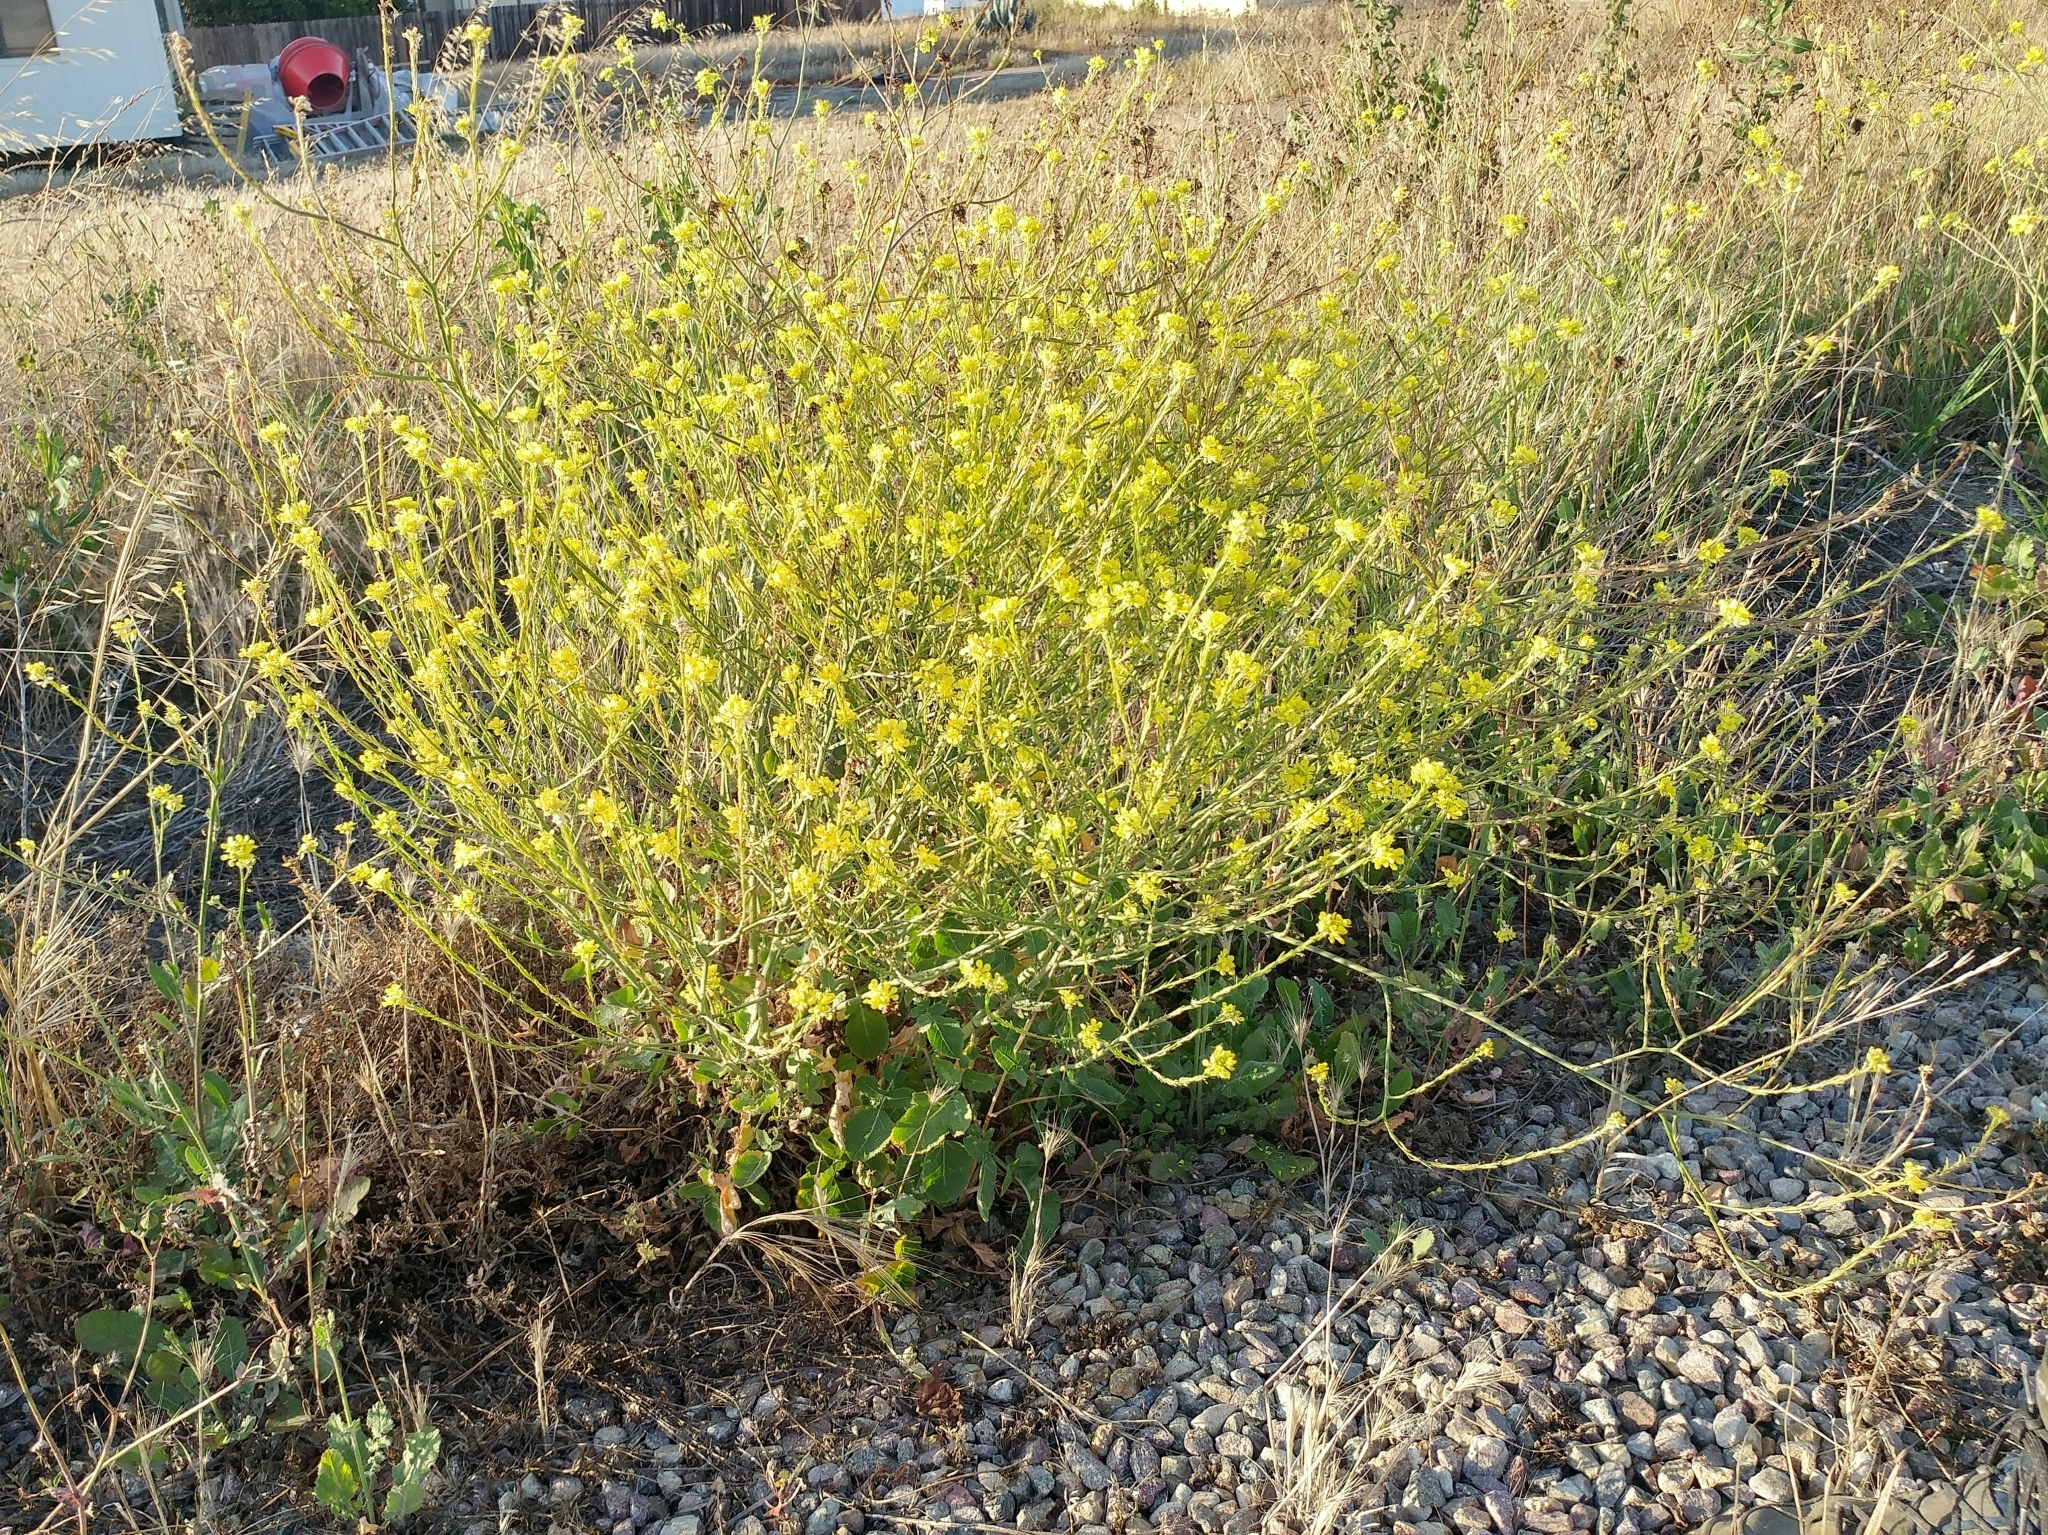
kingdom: Plantae
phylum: Tracheophyta
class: Magnoliopsida
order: Brassicales
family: Brassicaceae
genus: Hirschfeldia
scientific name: Hirschfeldia incana
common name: Hoary mustard
